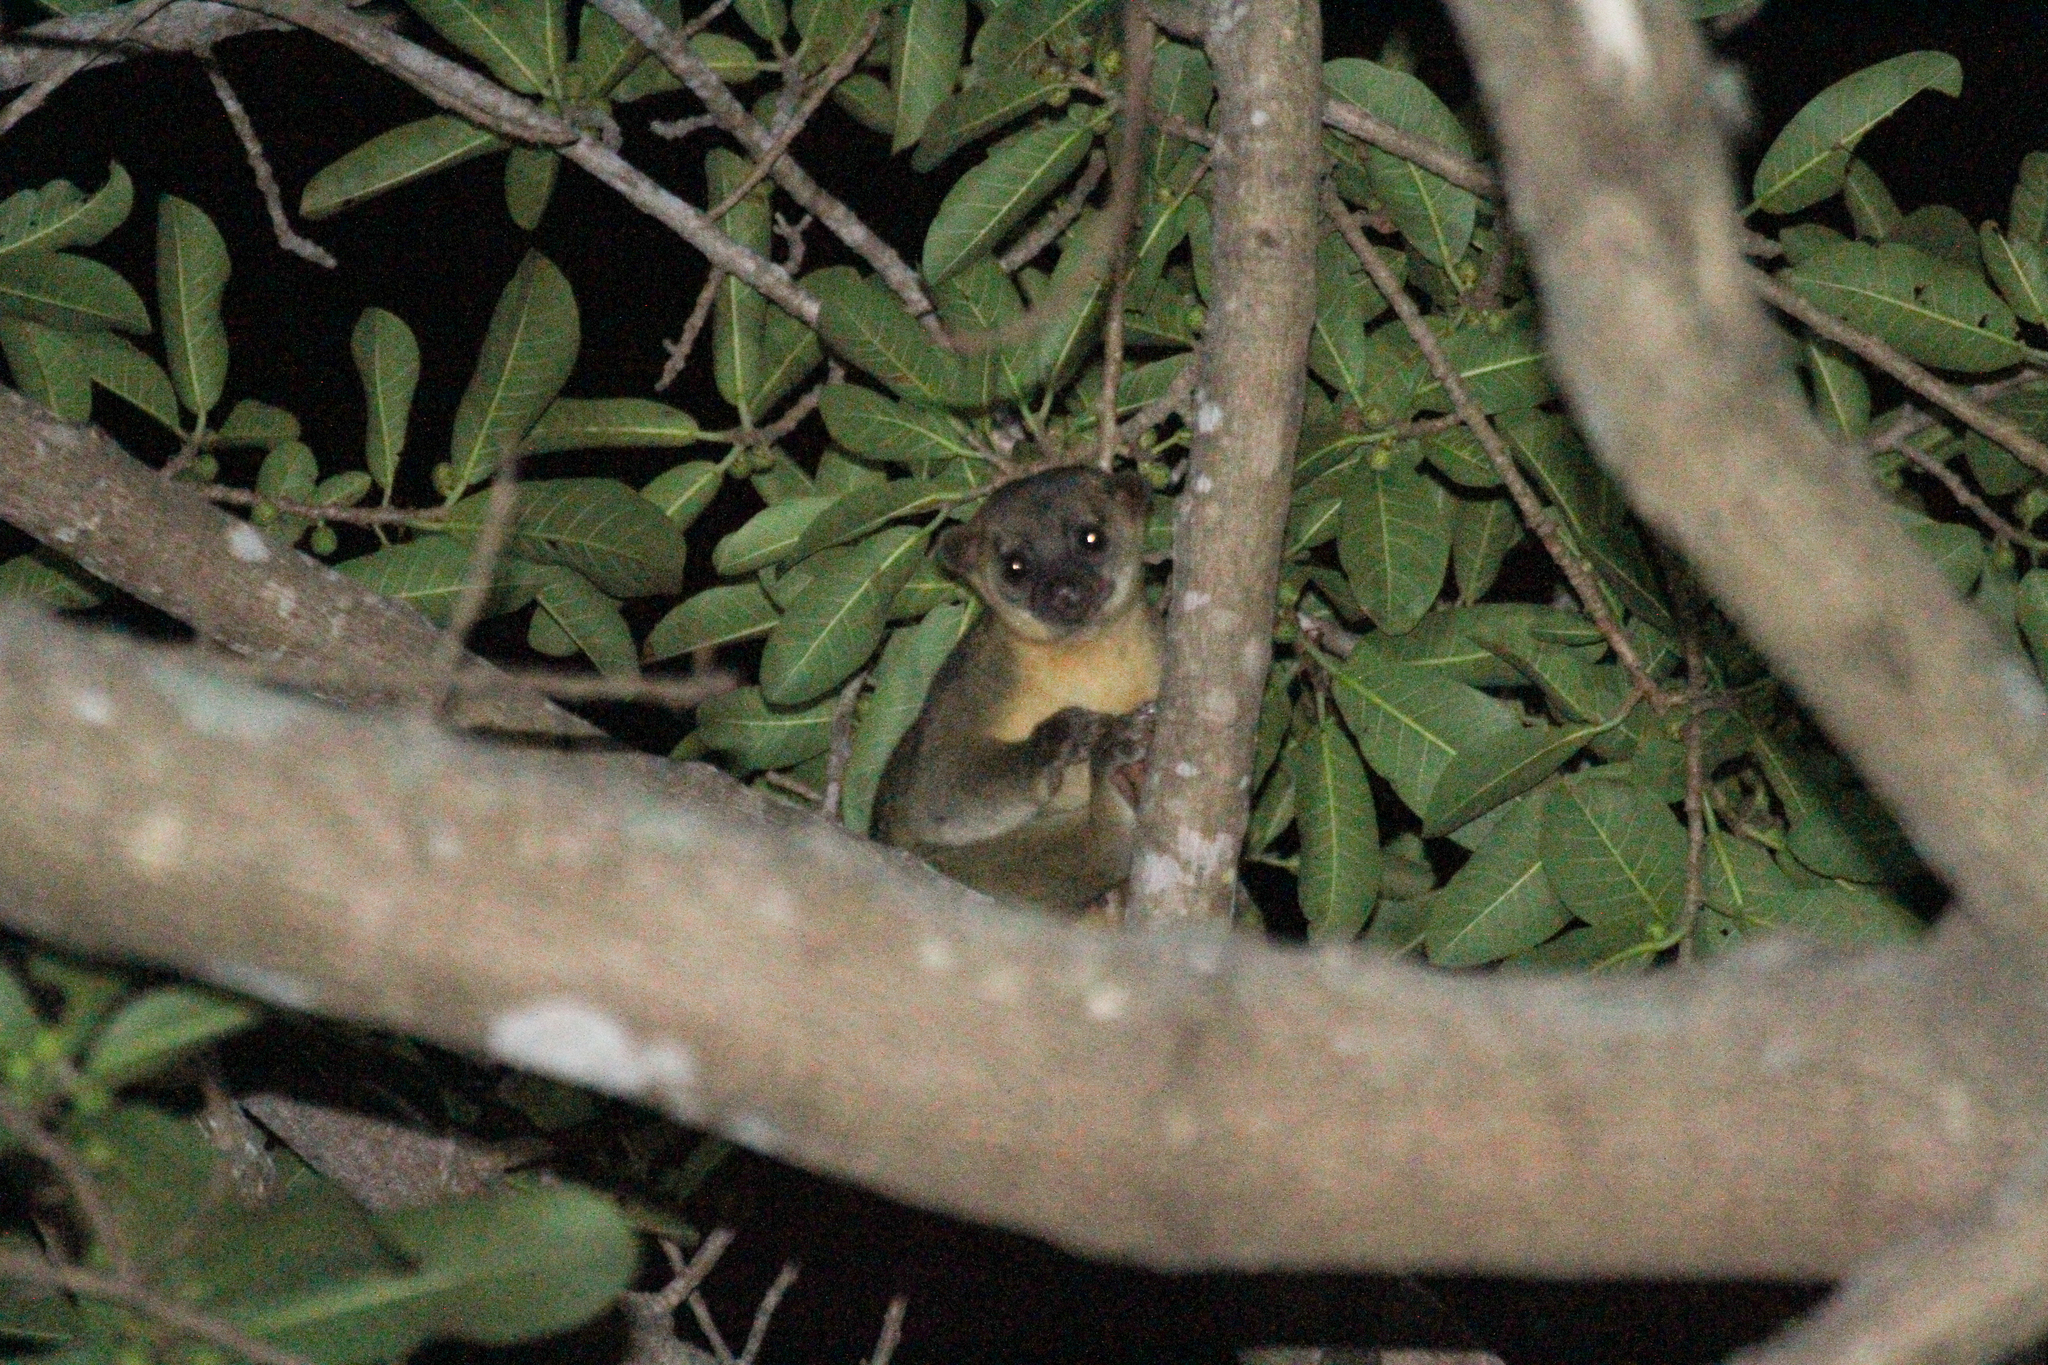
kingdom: Animalia
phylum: Chordata
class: Mammalia
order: Carnivora
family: Procyonidae
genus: Potos
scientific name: Potos flavus
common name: Kinkajou
